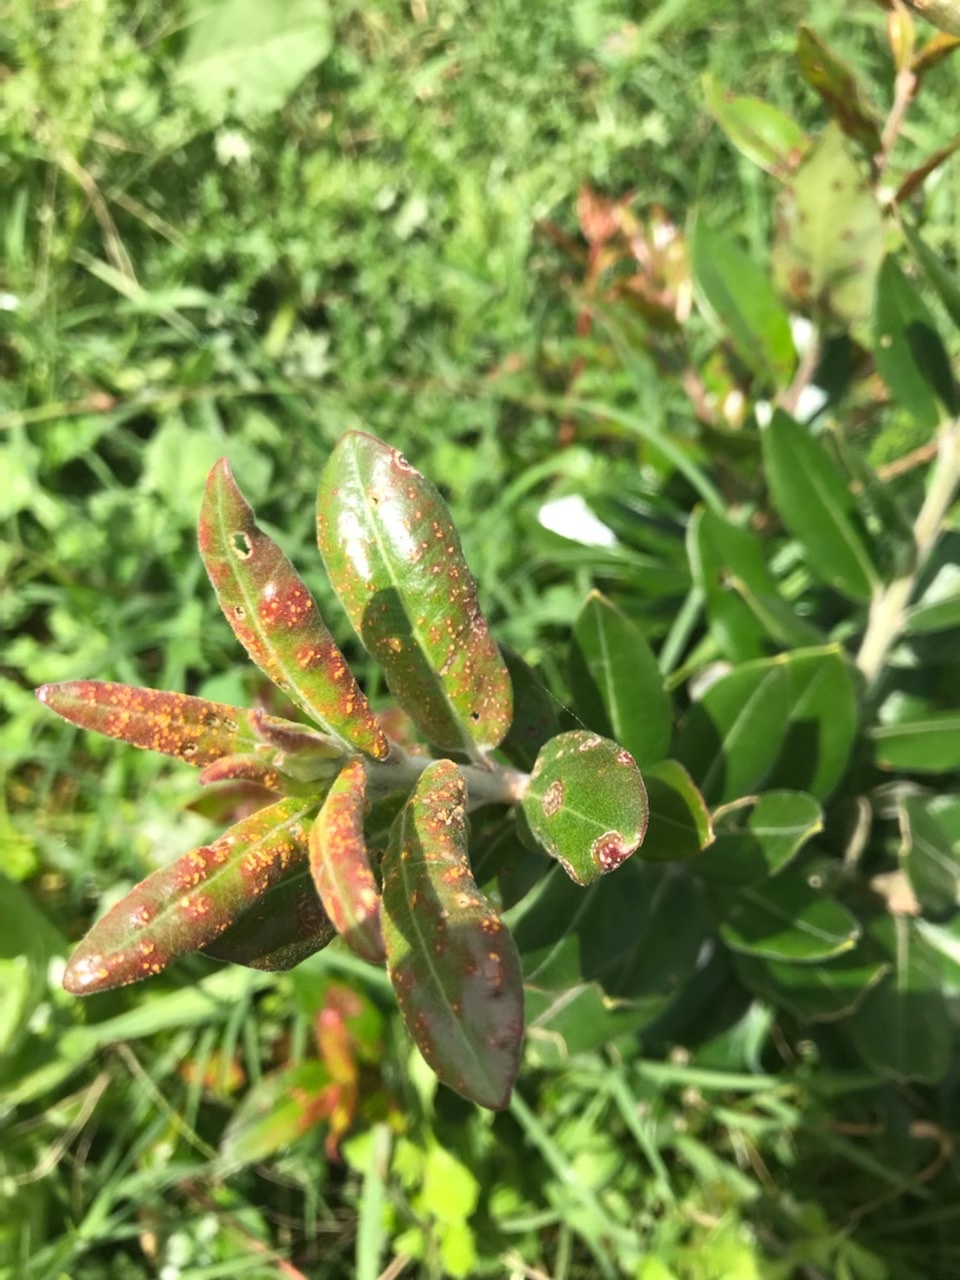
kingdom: Fungi
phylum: Basidiomycota
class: Pucciniomycetes
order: Pucciniales
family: Sphaerophragmiaceae
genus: Austropuccinia
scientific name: Austropuccinia psidii
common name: Myrtle rust
